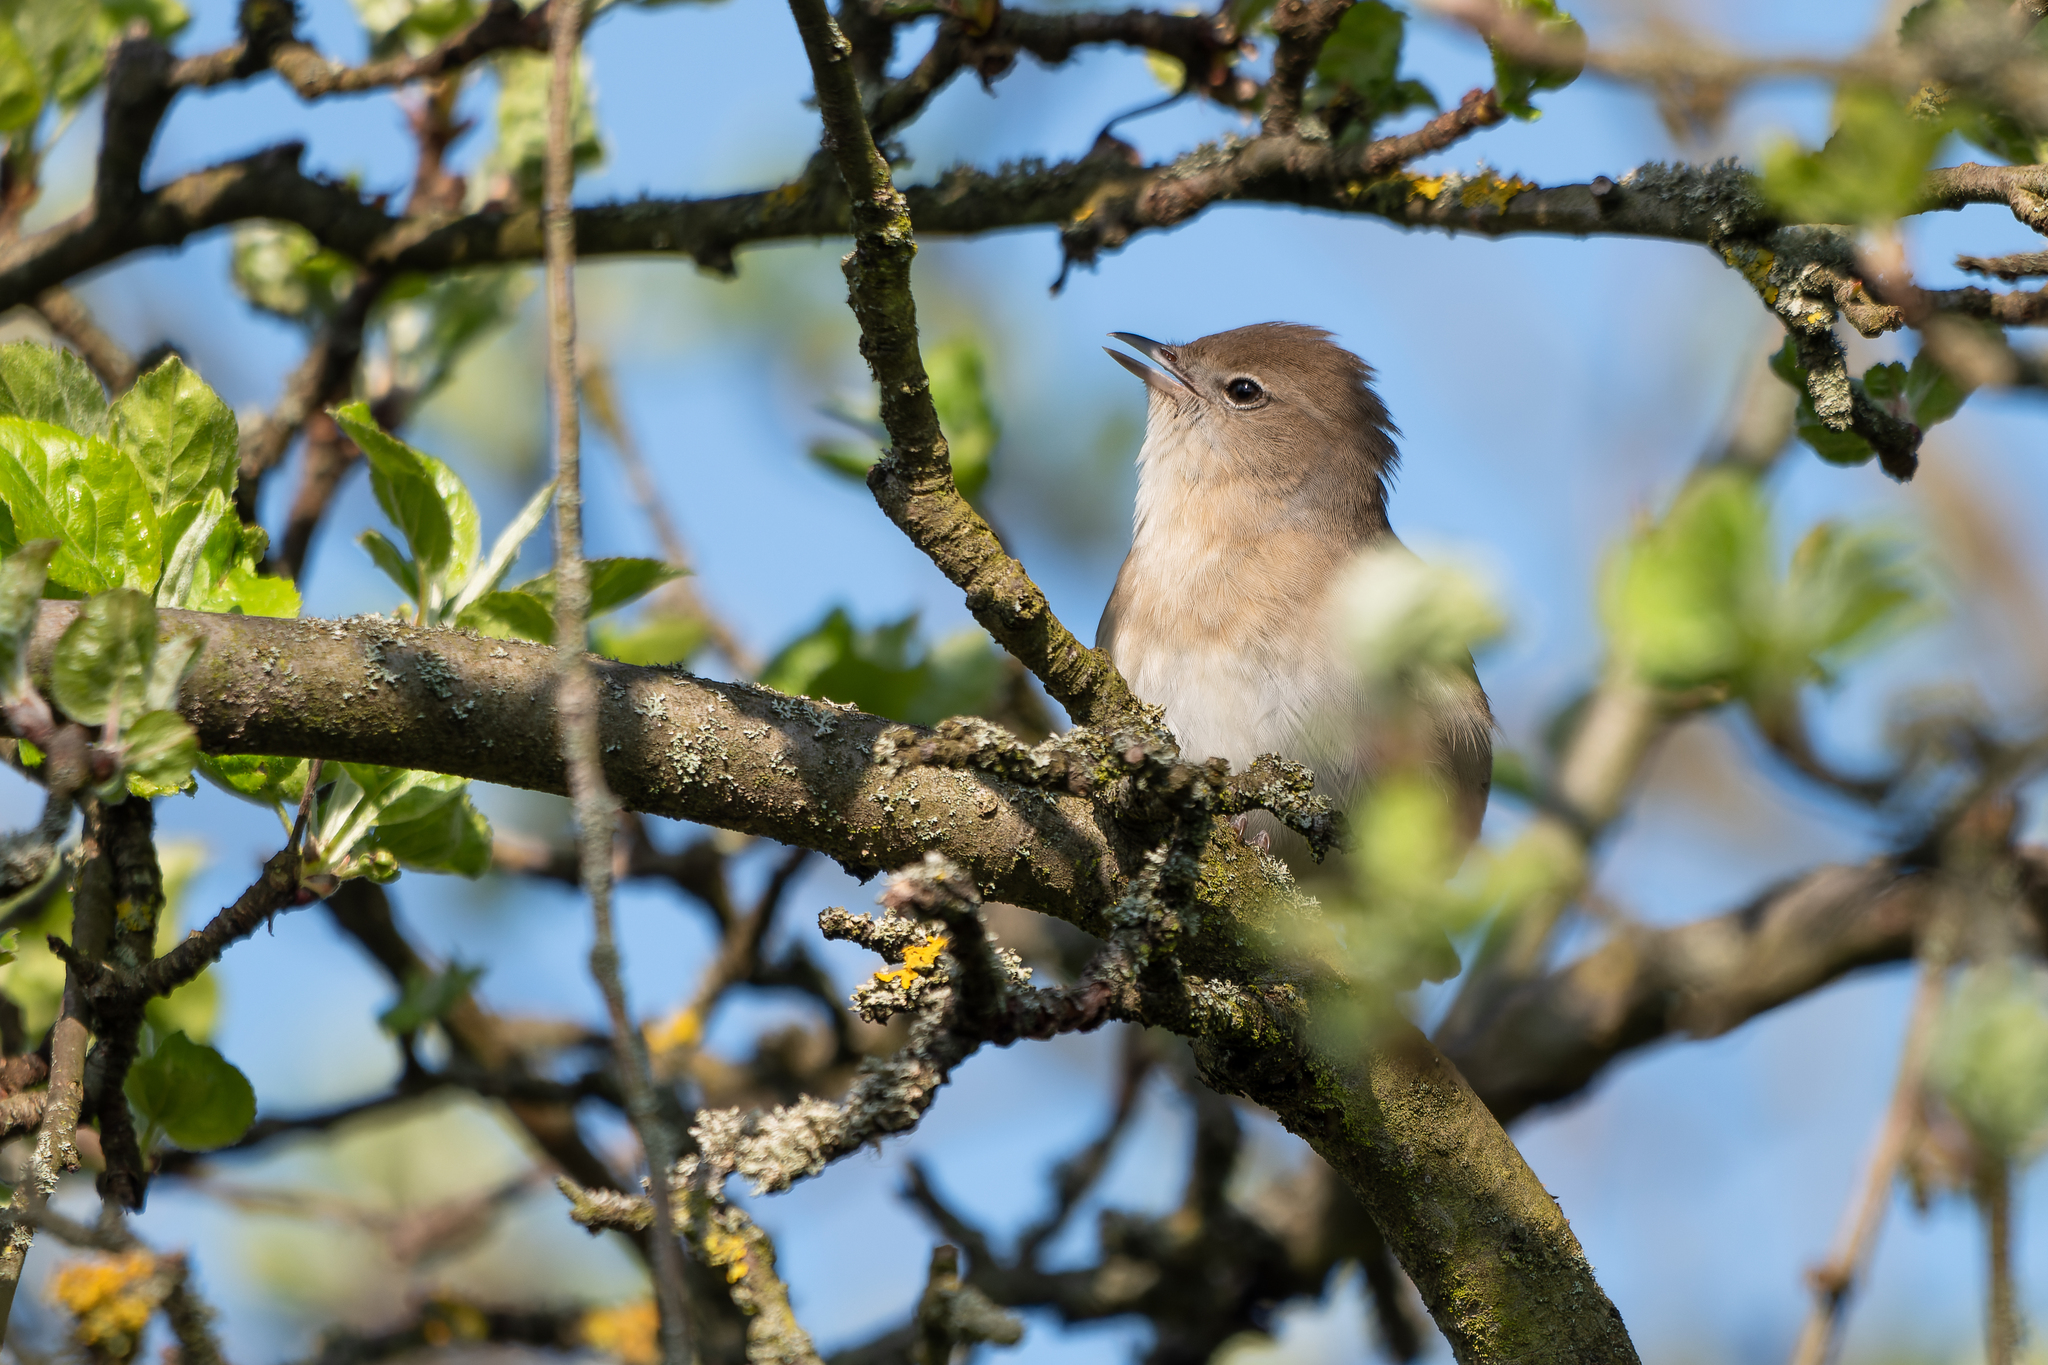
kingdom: Animalia
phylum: Chordata
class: Aves
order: Passeriformes
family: Sylviidae
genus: Sylvia
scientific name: Sylvia borin
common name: Garden warbler
